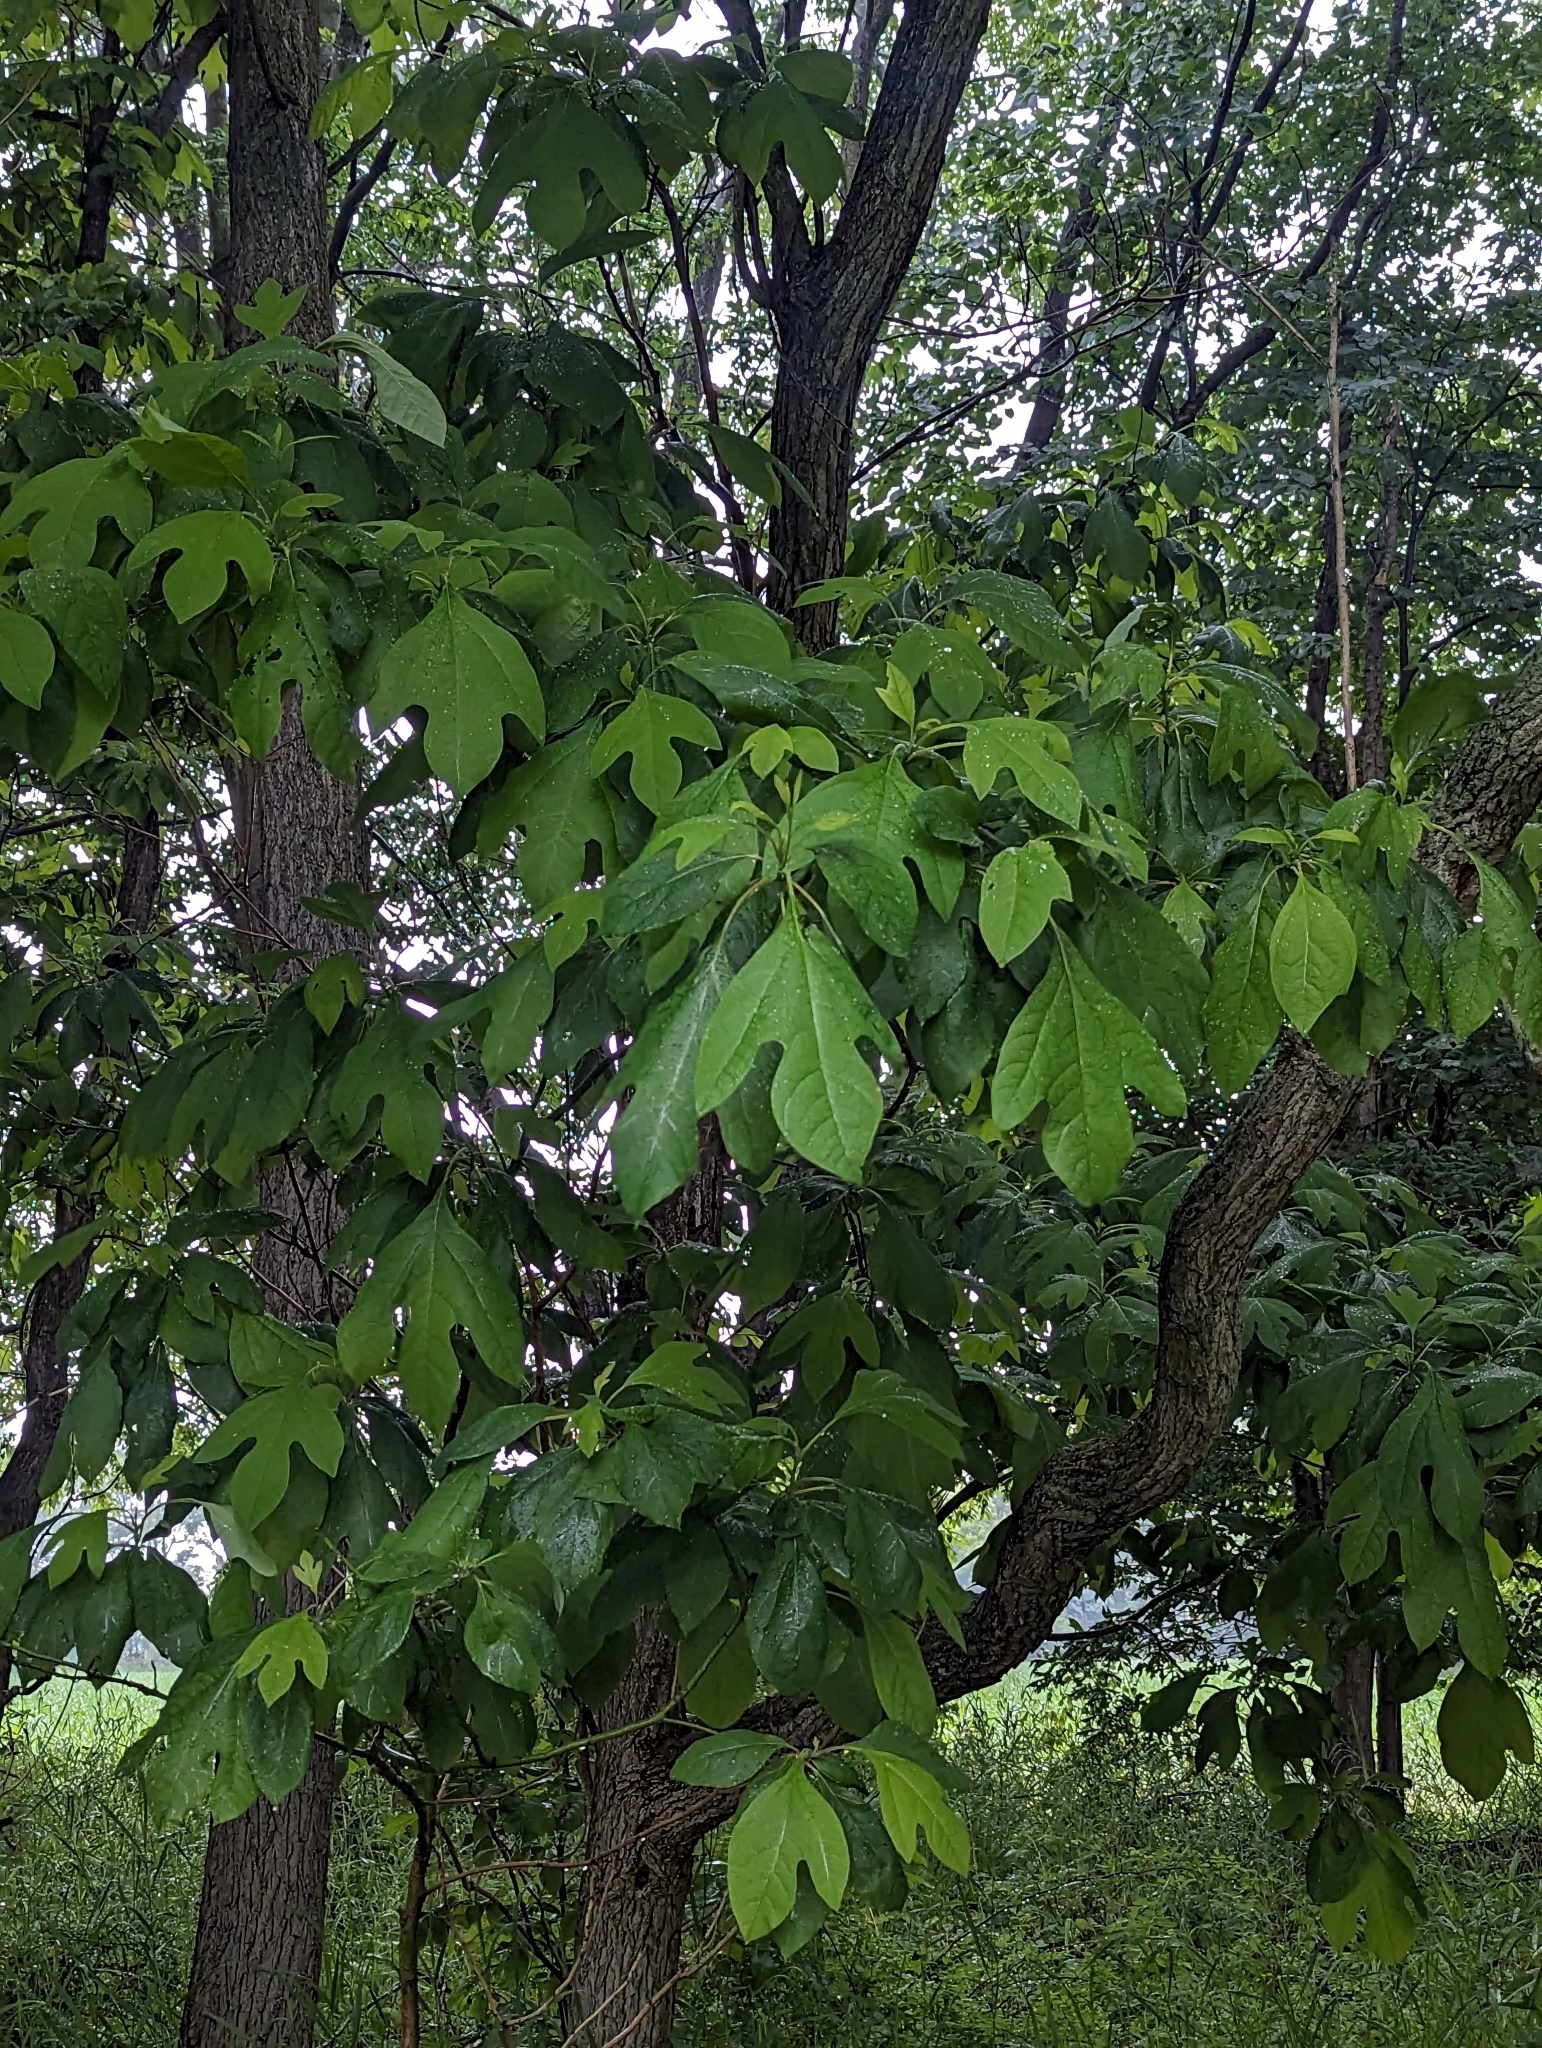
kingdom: Plantae
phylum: Tracheophyta
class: Magnoliopsida
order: Laurales
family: Lauraceae
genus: Sassafras
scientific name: Sassafras albidum
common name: Sassafras
